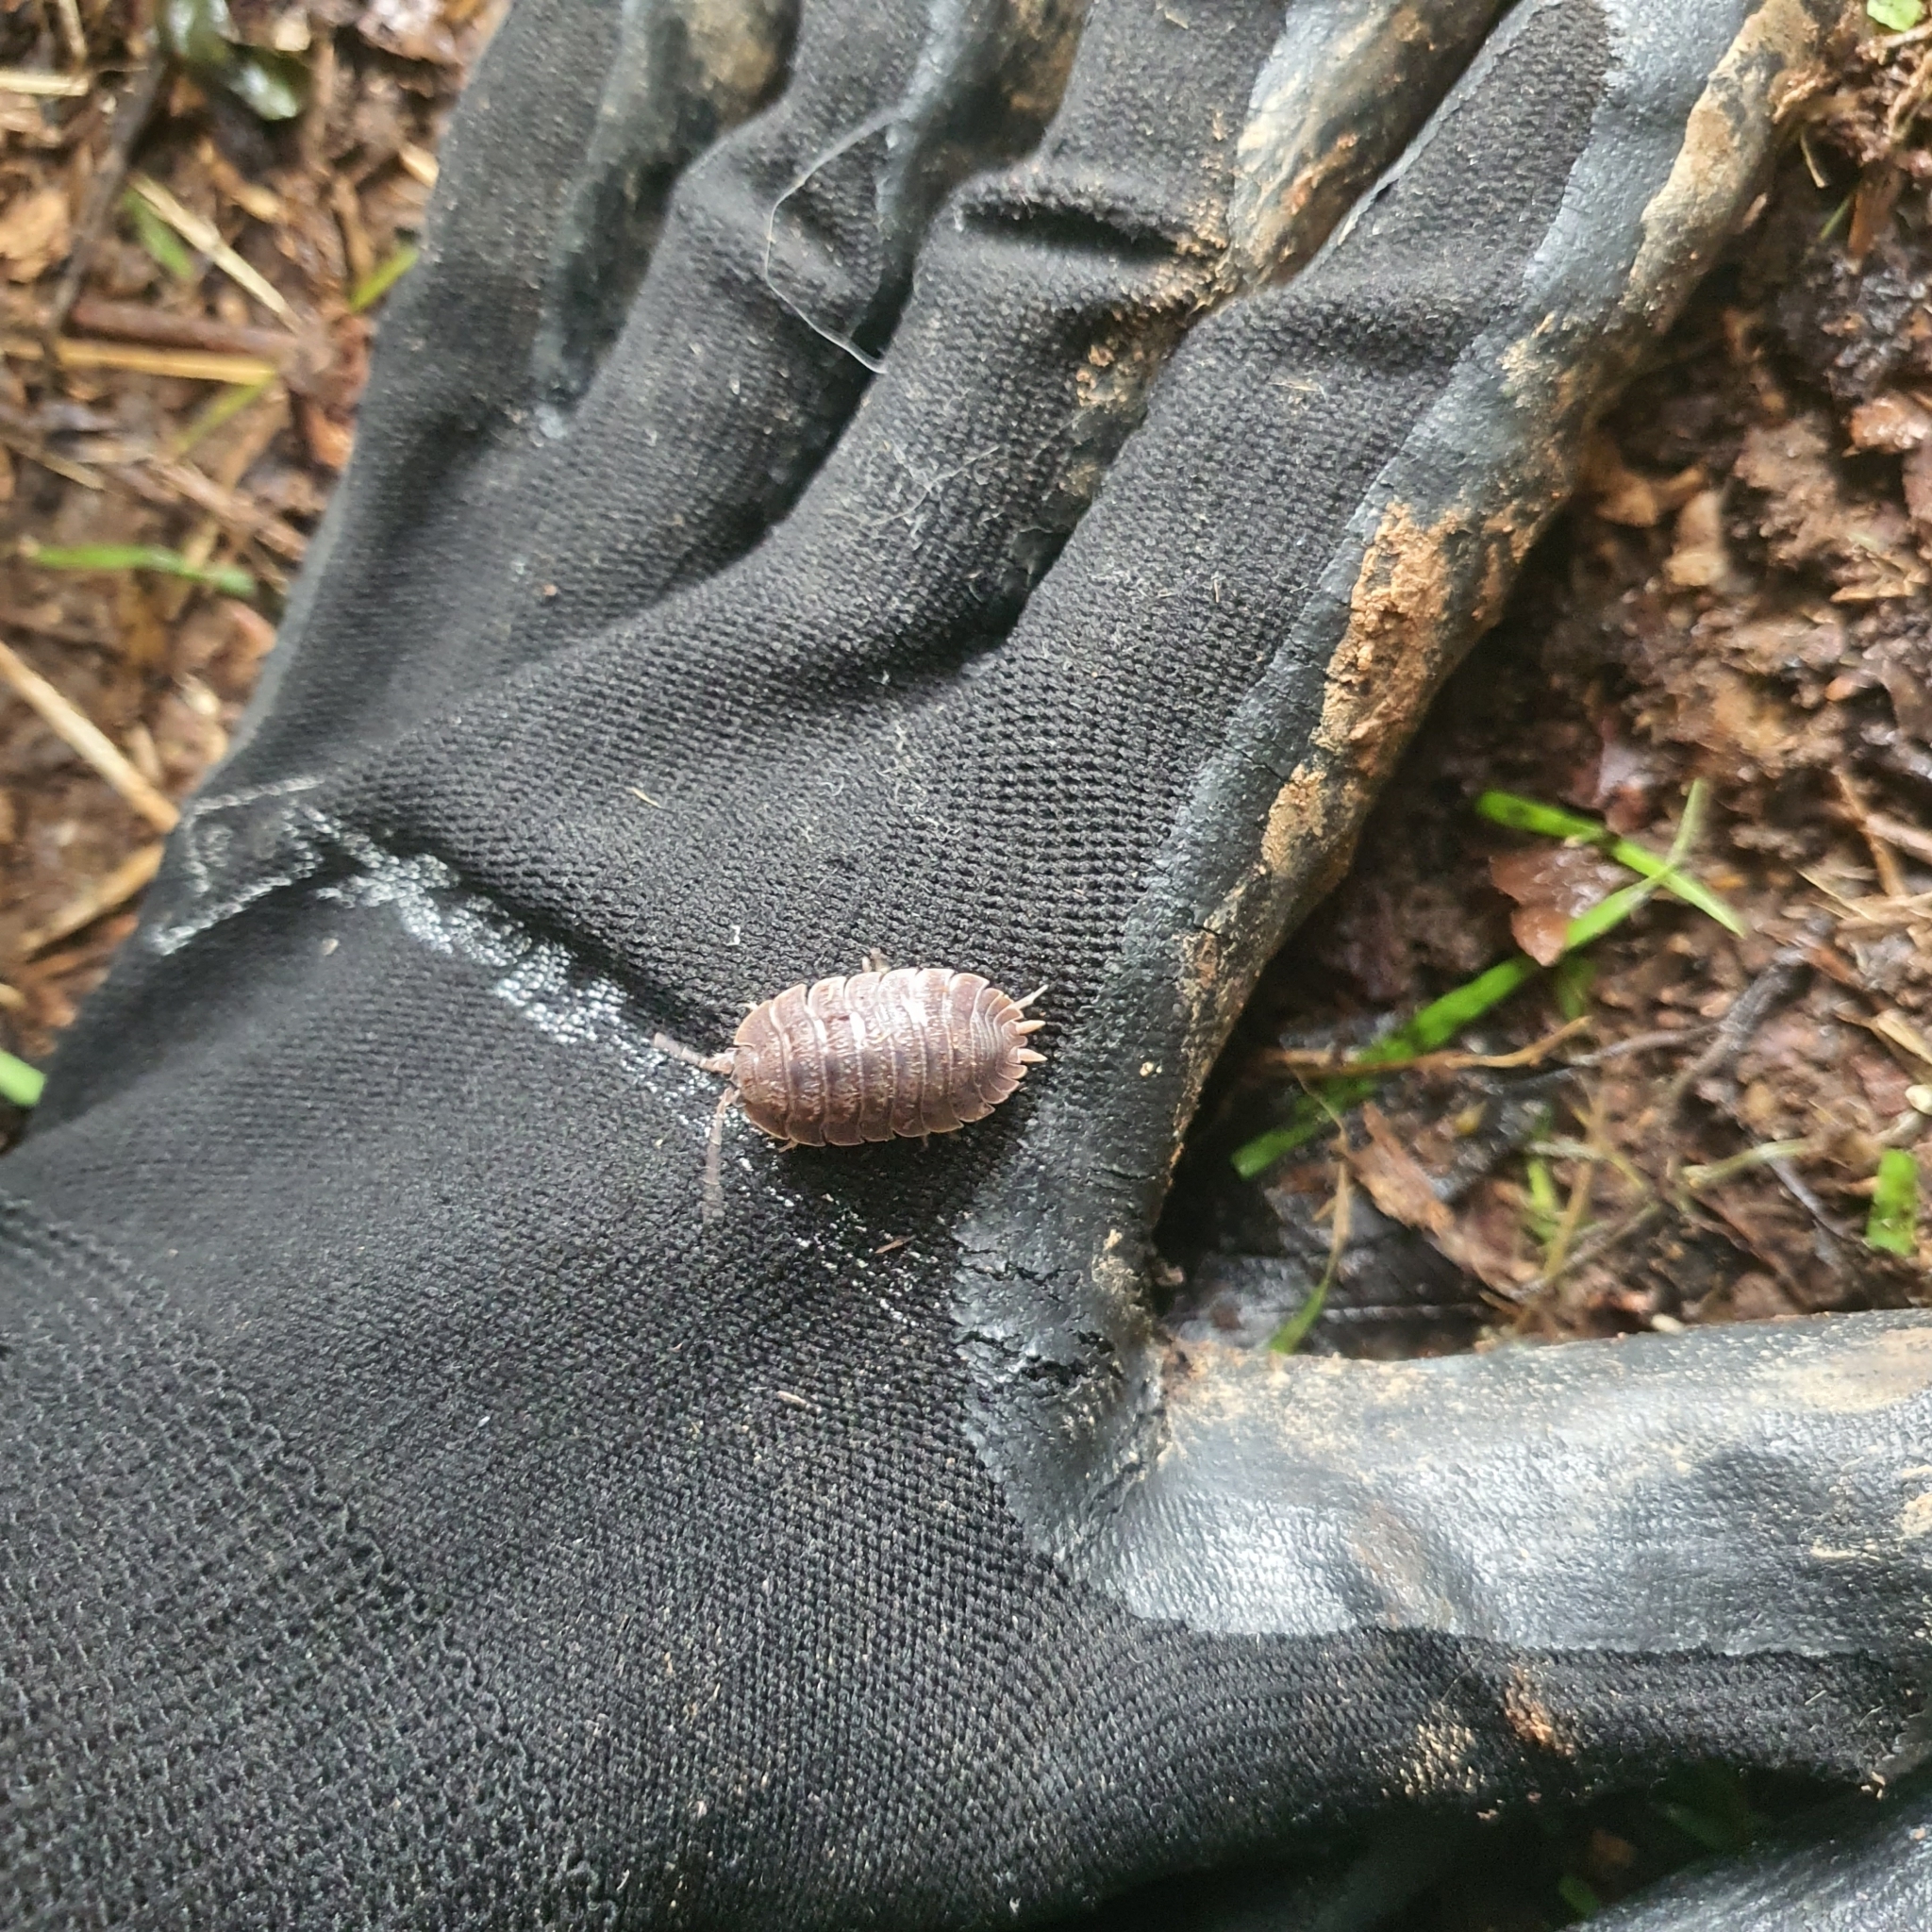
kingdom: Animalia
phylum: Arthropoda
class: Malacostraca
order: Isopoda
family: Porcellionidae
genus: Porcellio
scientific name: Porcellio dilatatus
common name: Isopod
